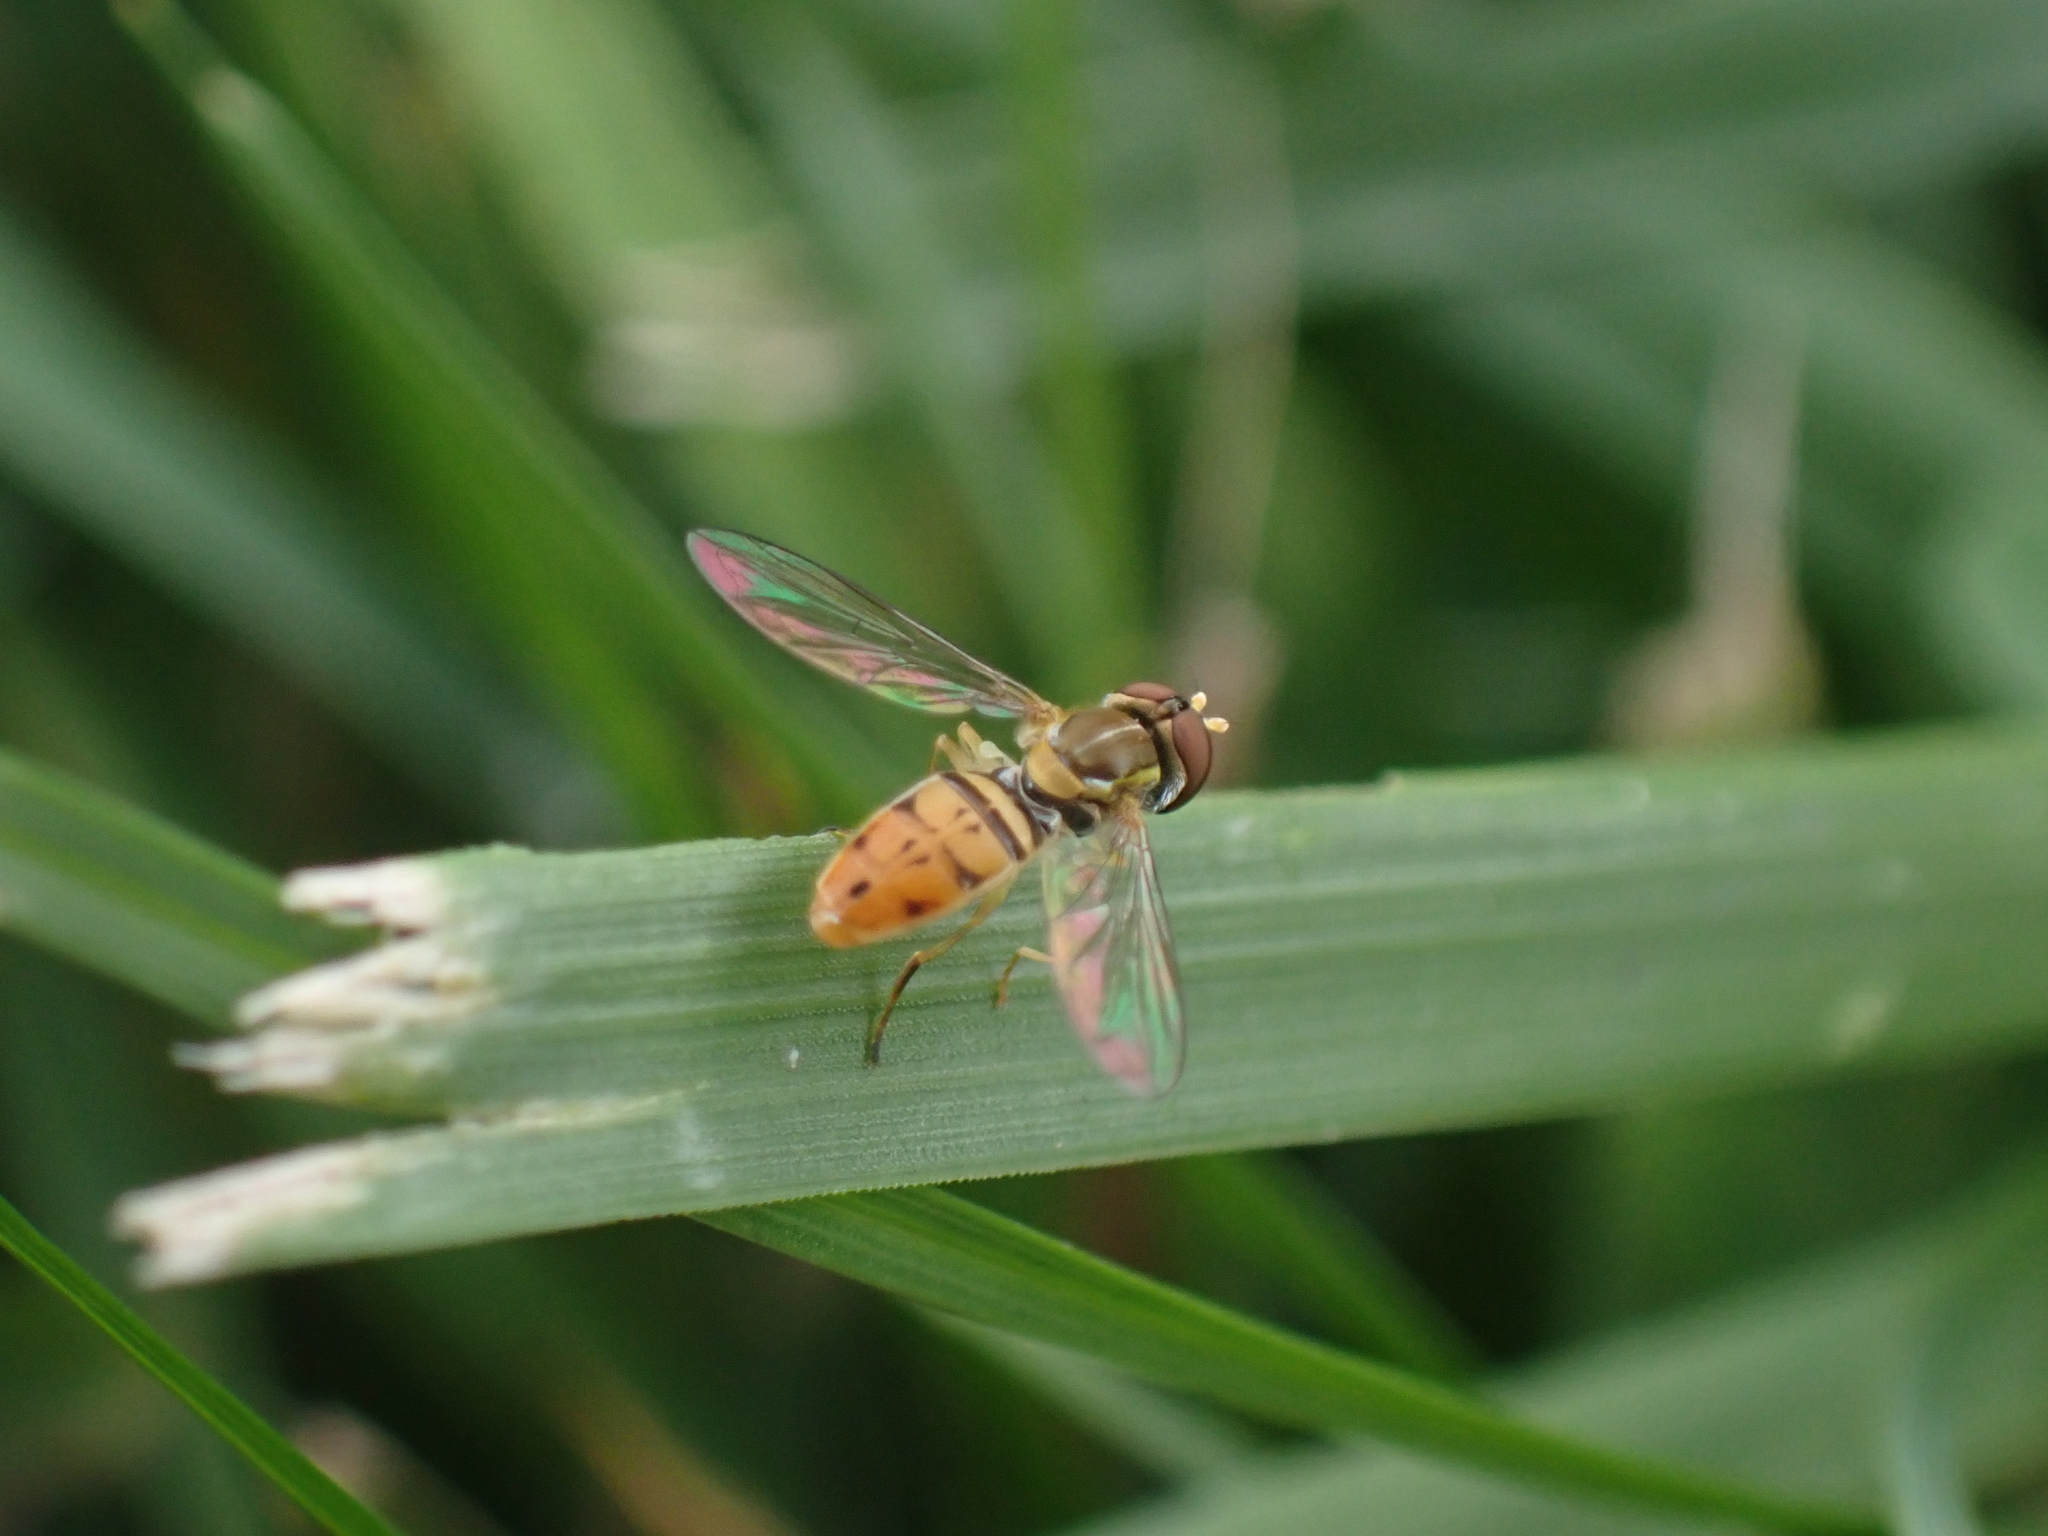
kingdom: Animalia
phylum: Arthropoda
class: Insecta
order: Diptera
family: Syrphidae
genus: Toxomerus
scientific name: Toxomerus marginatus
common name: Syrphid fly
